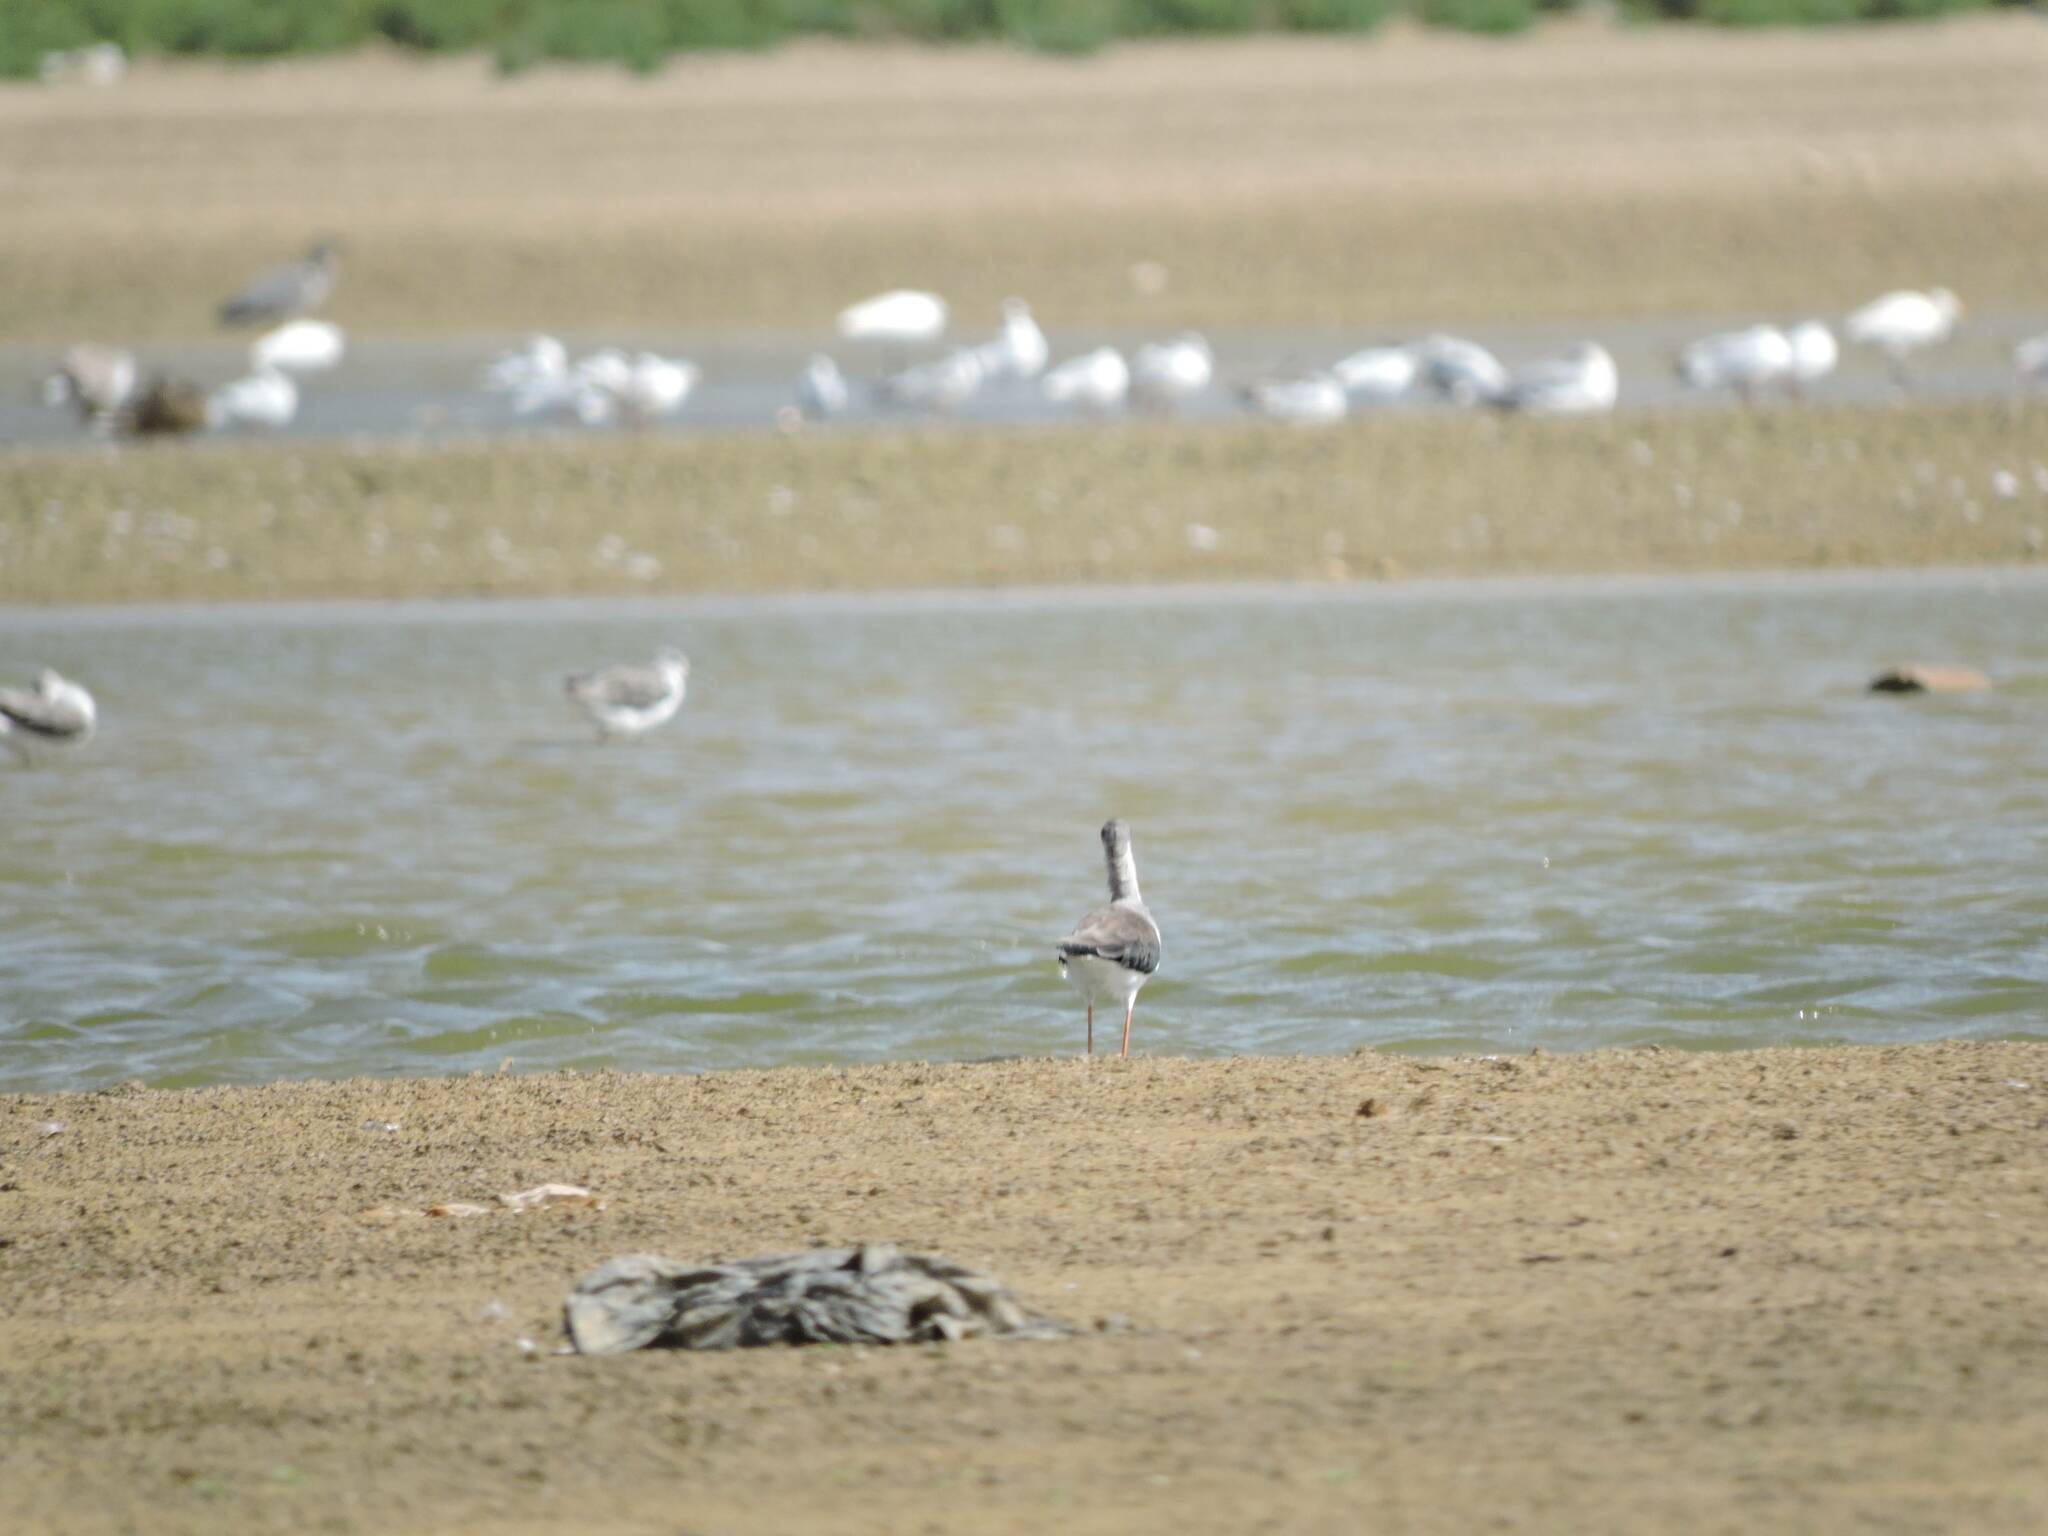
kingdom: Animalia
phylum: Chordata
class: Aves
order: Charadriiformes
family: Recurvirostridae
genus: Himantopus
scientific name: Himantopus himantopus
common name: Black-winged stilt
